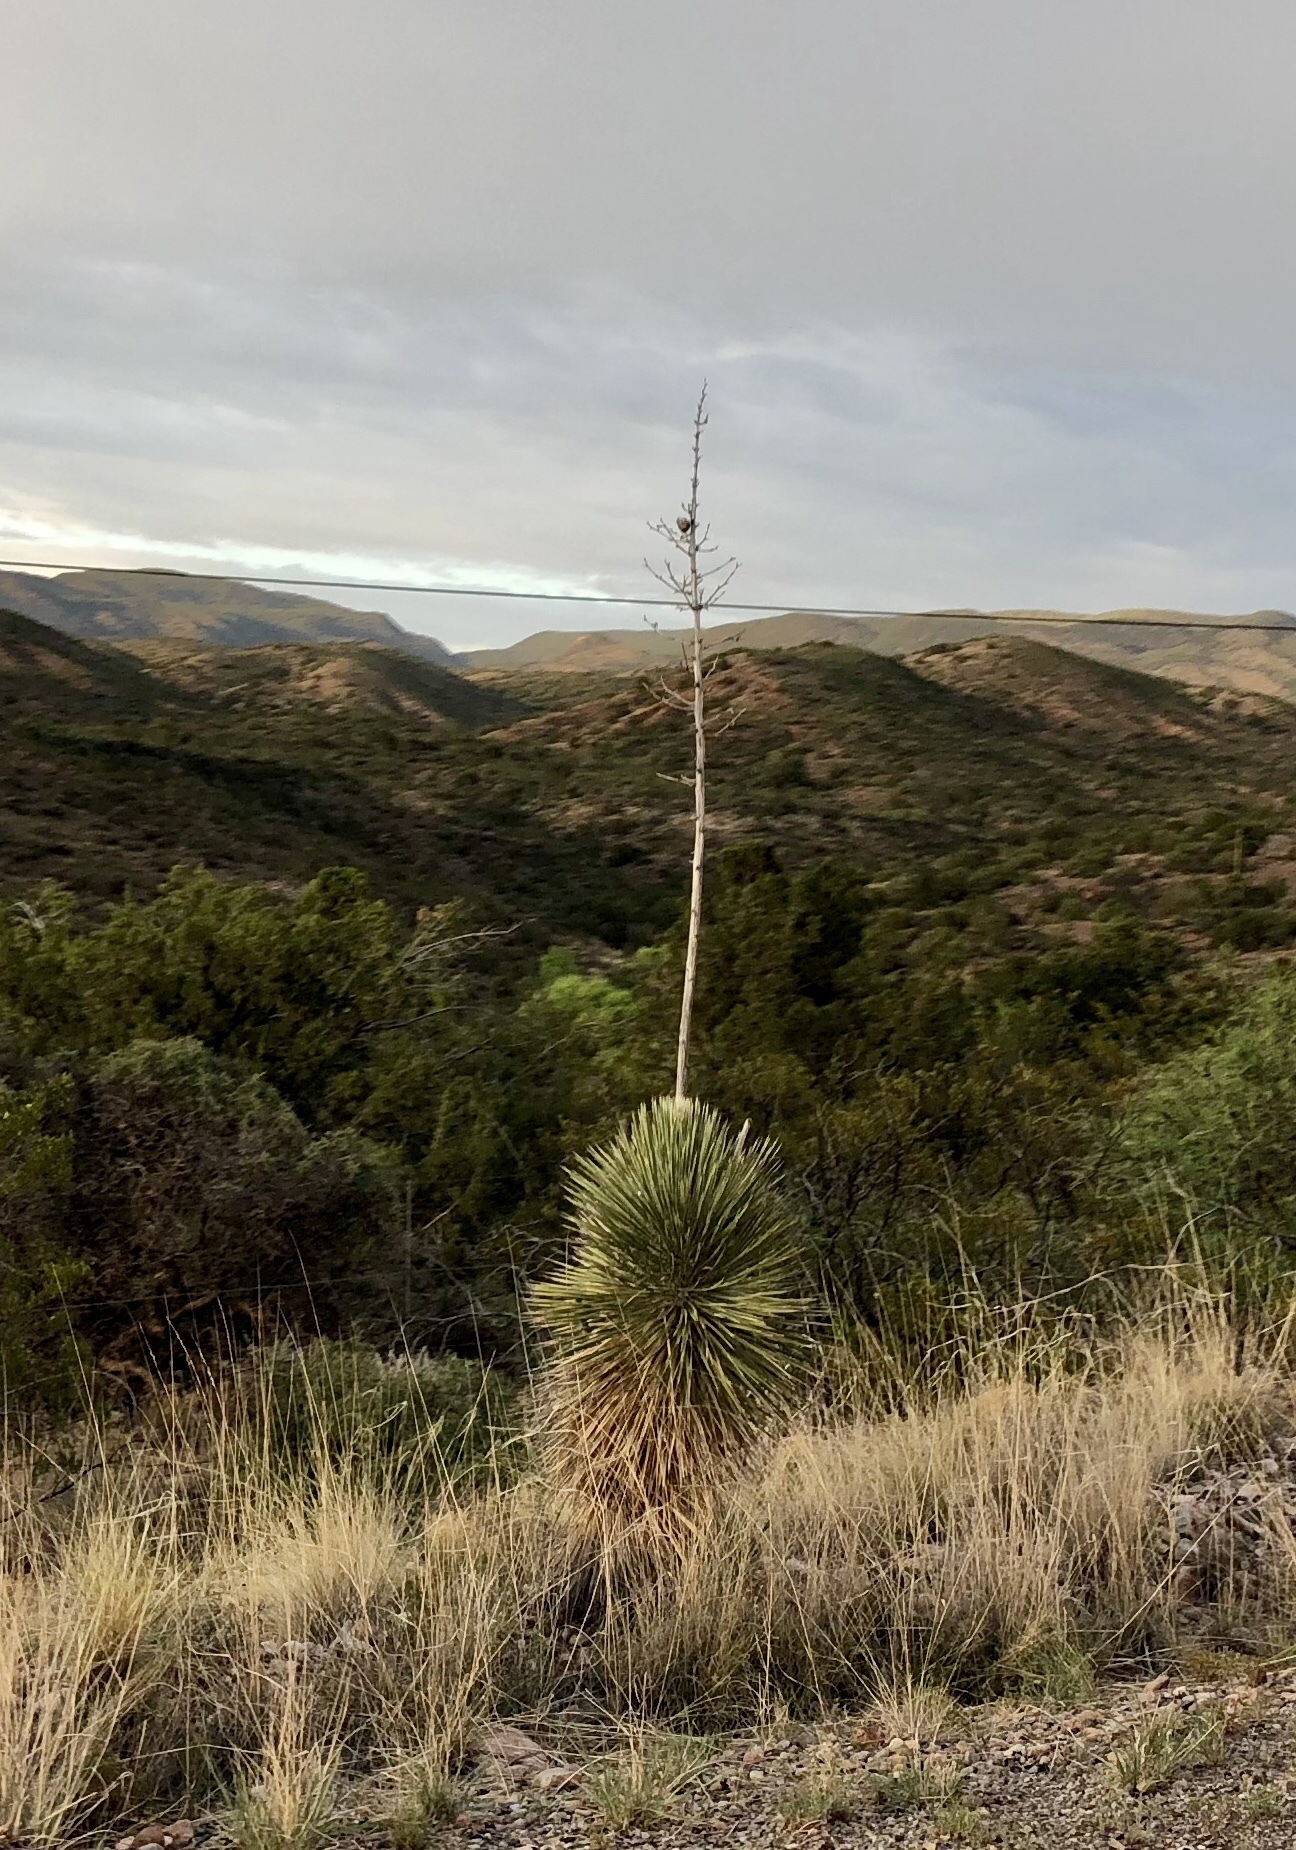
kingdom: Plantae
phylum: Tracheophyta
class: Liliopsida
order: Asparagales
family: Asparagaceae
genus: Yucca
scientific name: Yucca elata
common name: Palmella
